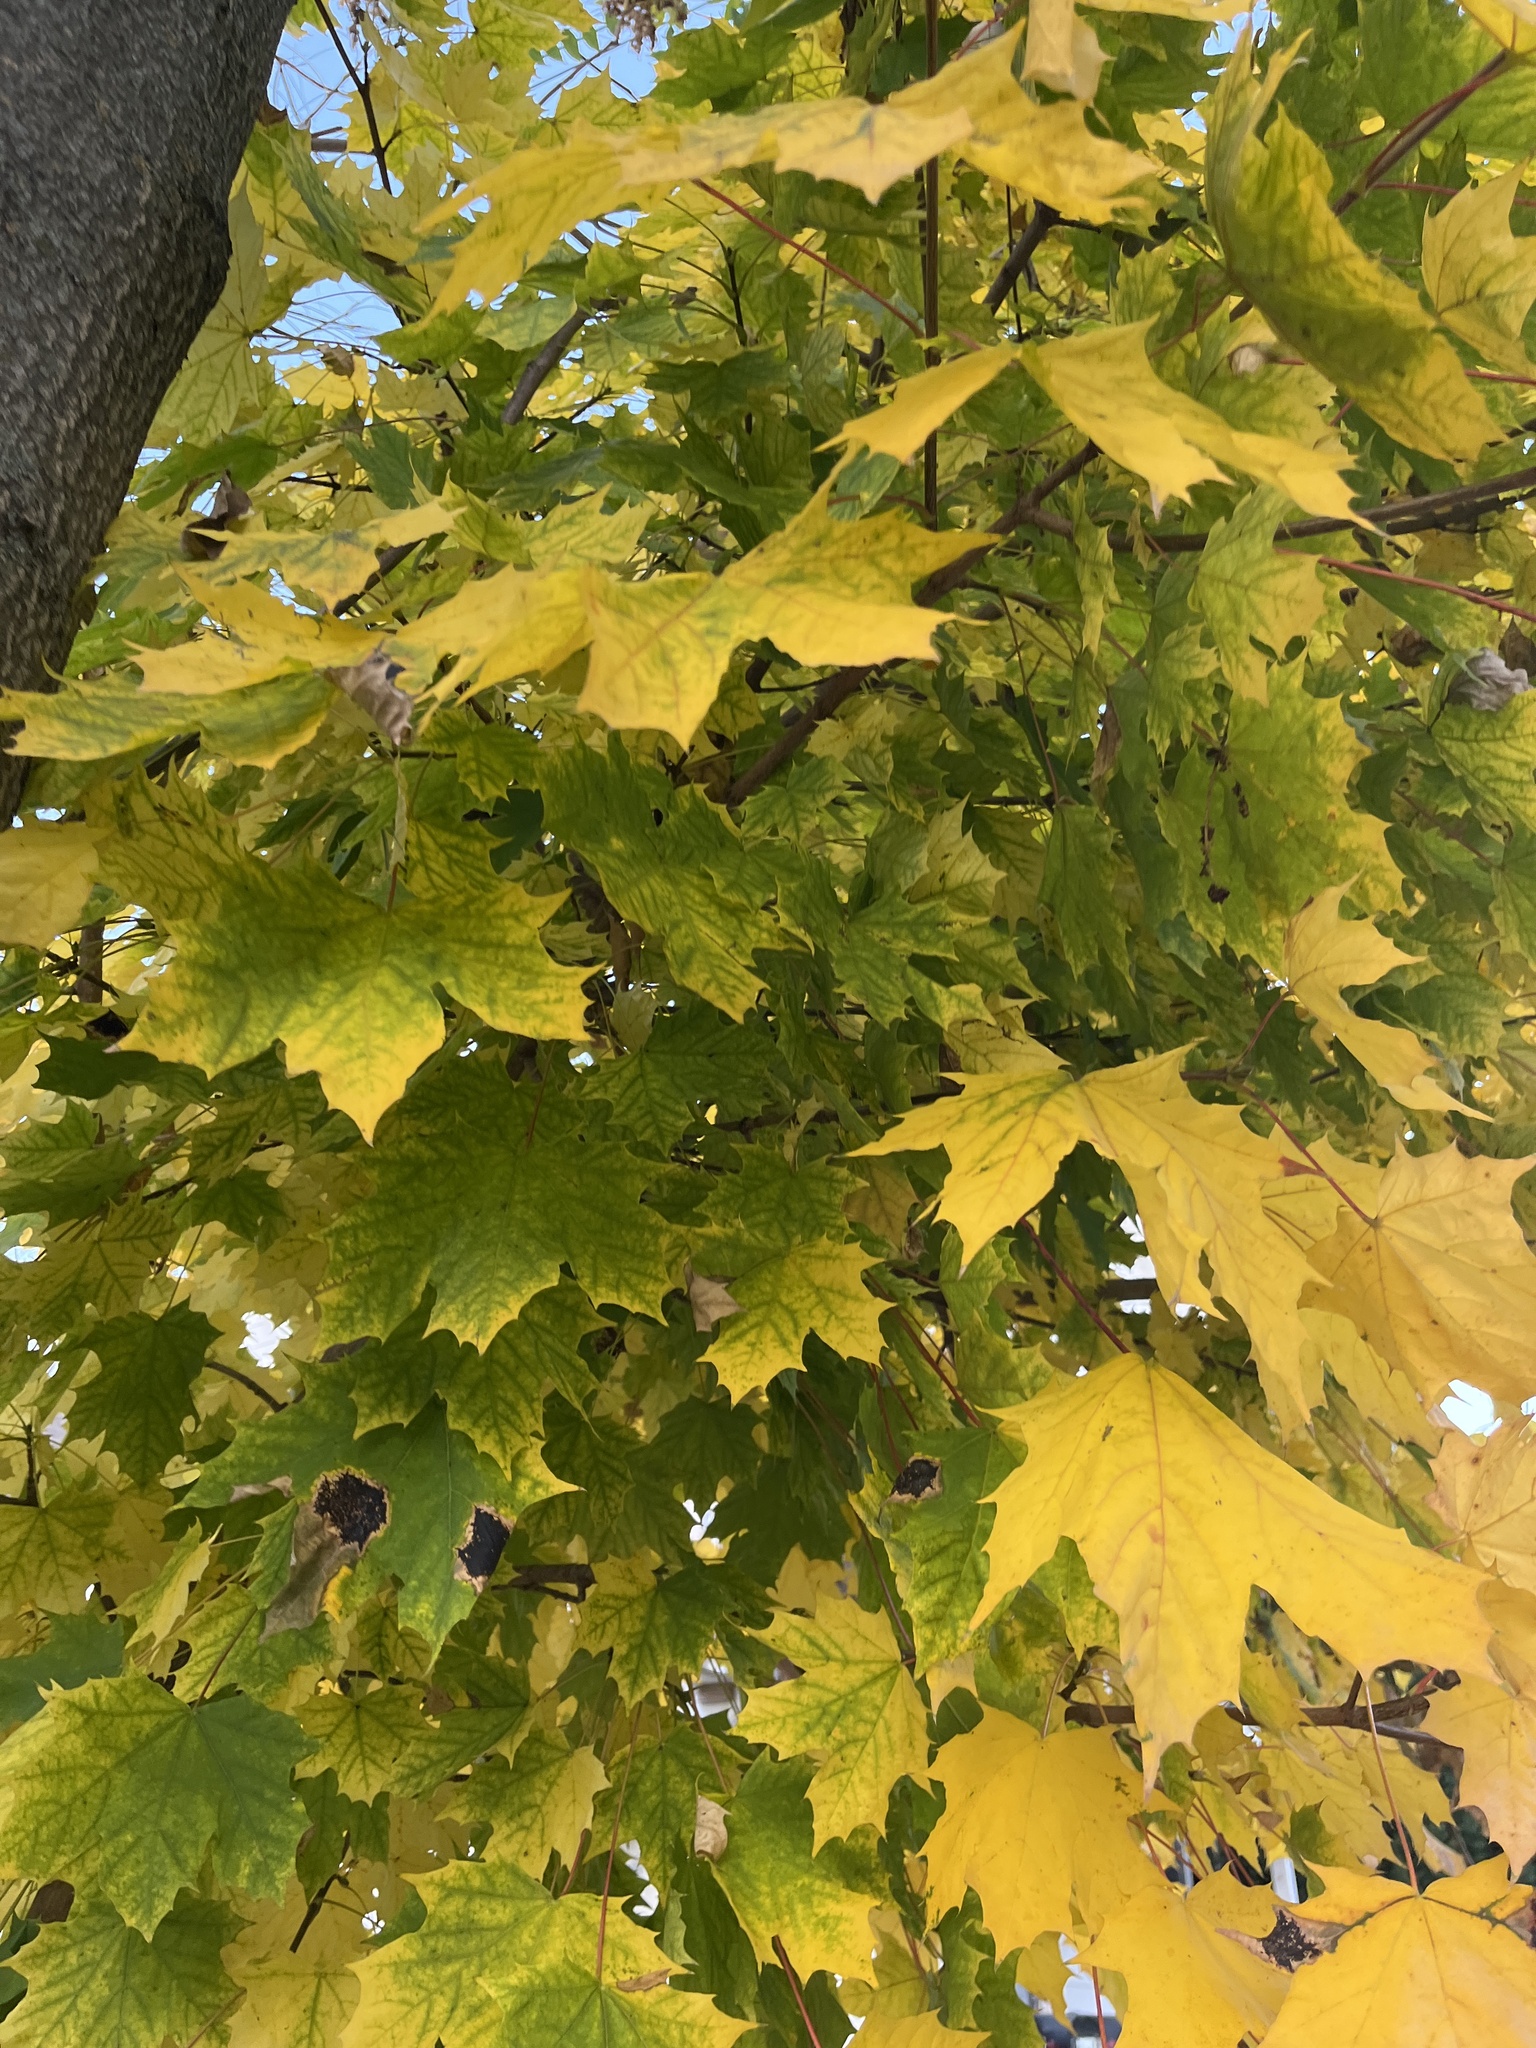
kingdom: Plantae
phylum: Tracheophyta
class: Magnoliopsida
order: Sapindales
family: Sapindaceae
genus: Acer
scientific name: Acer platanoides
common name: Norway maple
